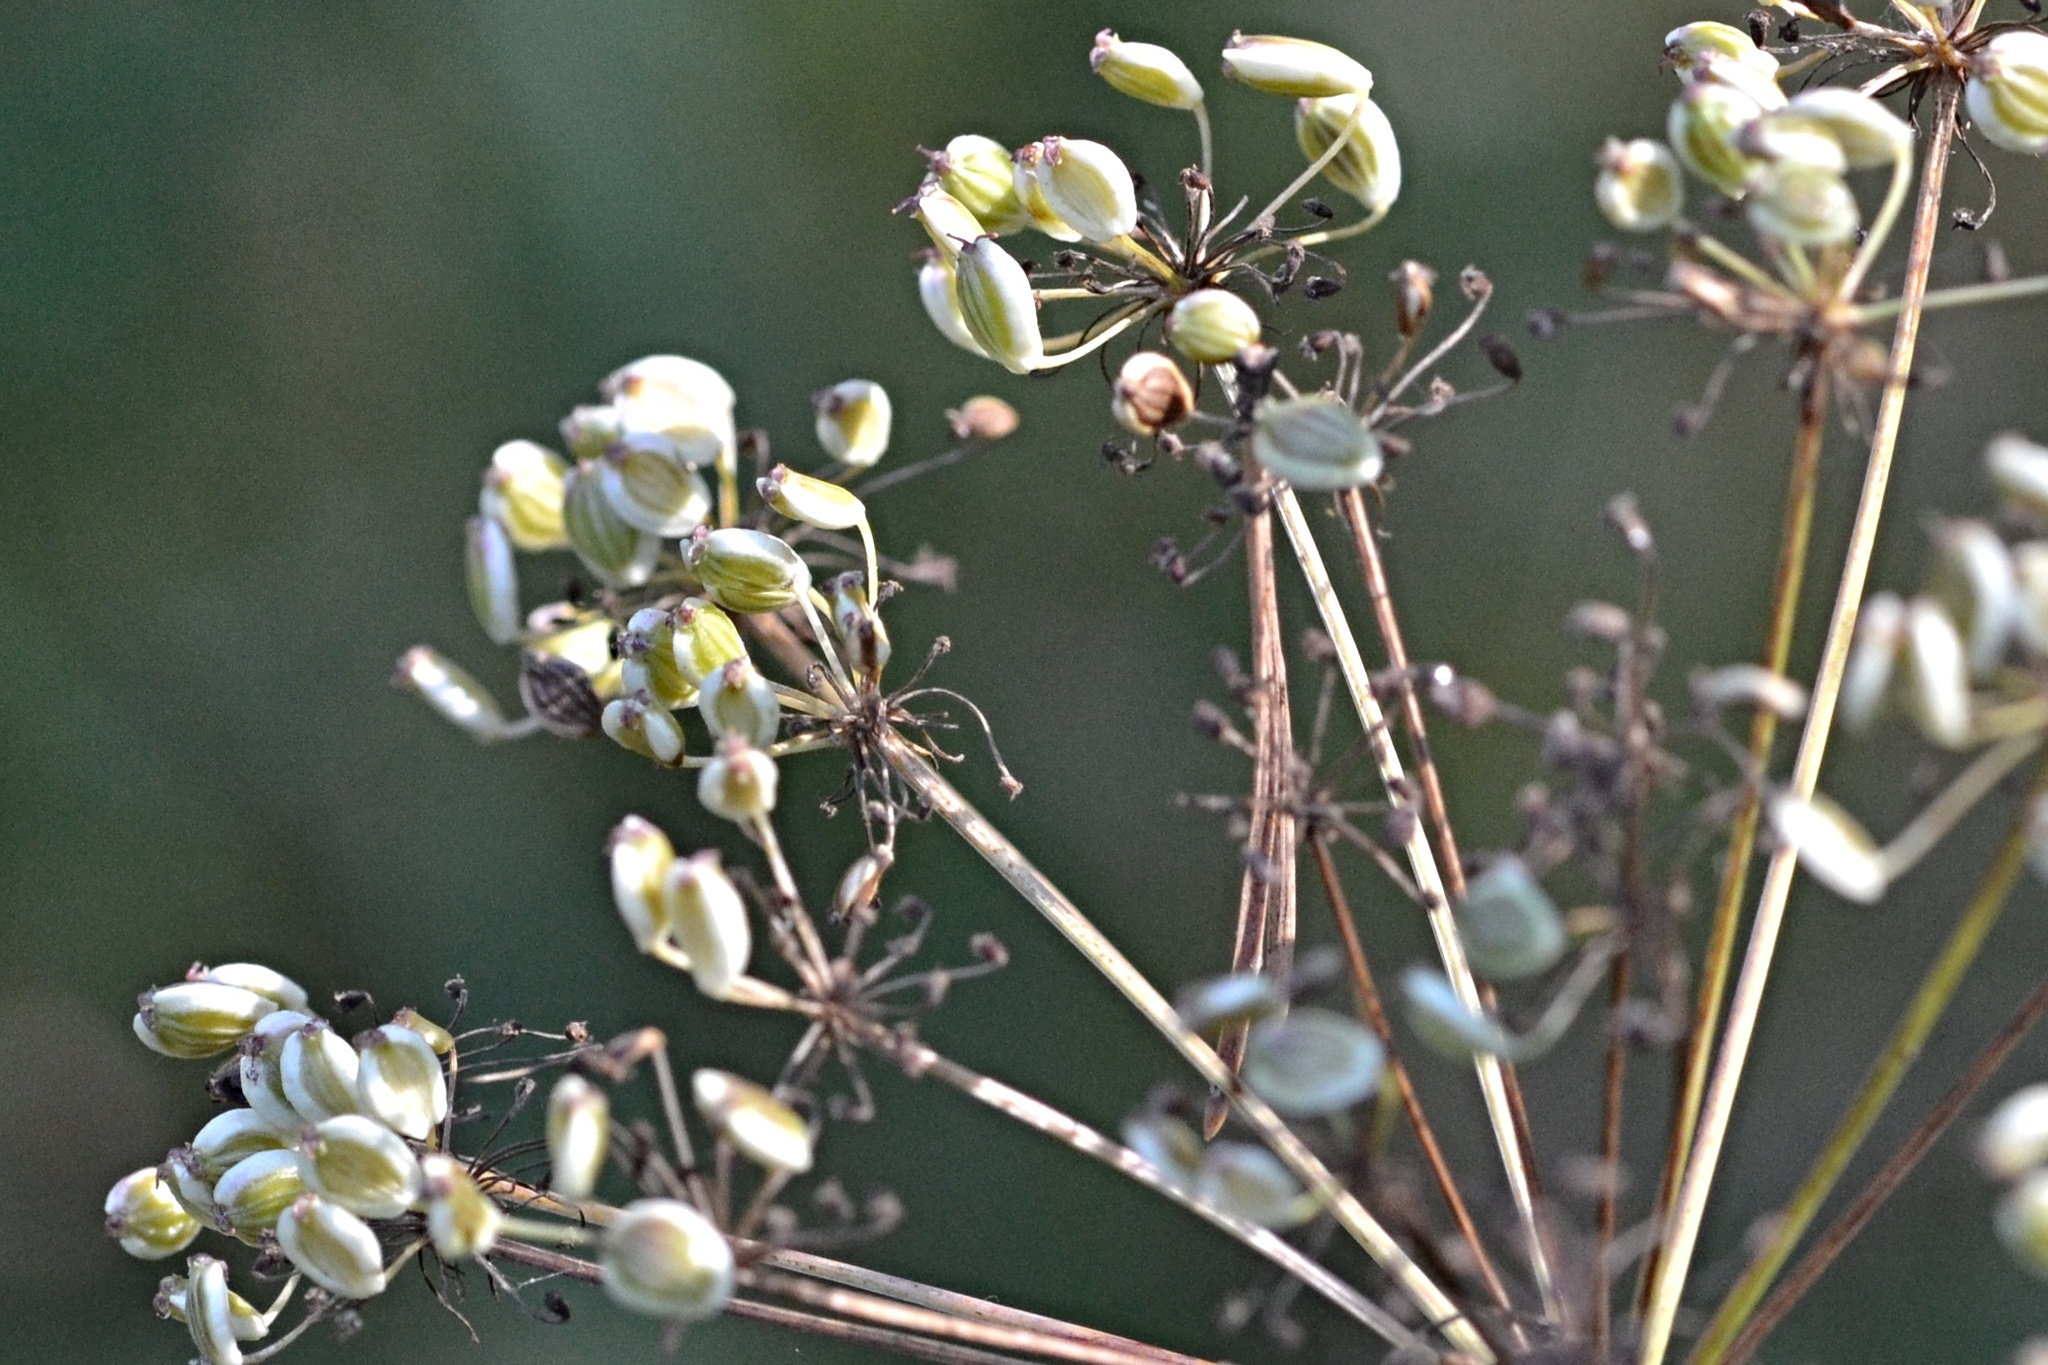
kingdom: Plantae
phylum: Tracheophyta
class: Magnoliopsida
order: Apiales
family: Apiaceae
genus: Oreoselinum
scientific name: Oreoselinum nigrum
